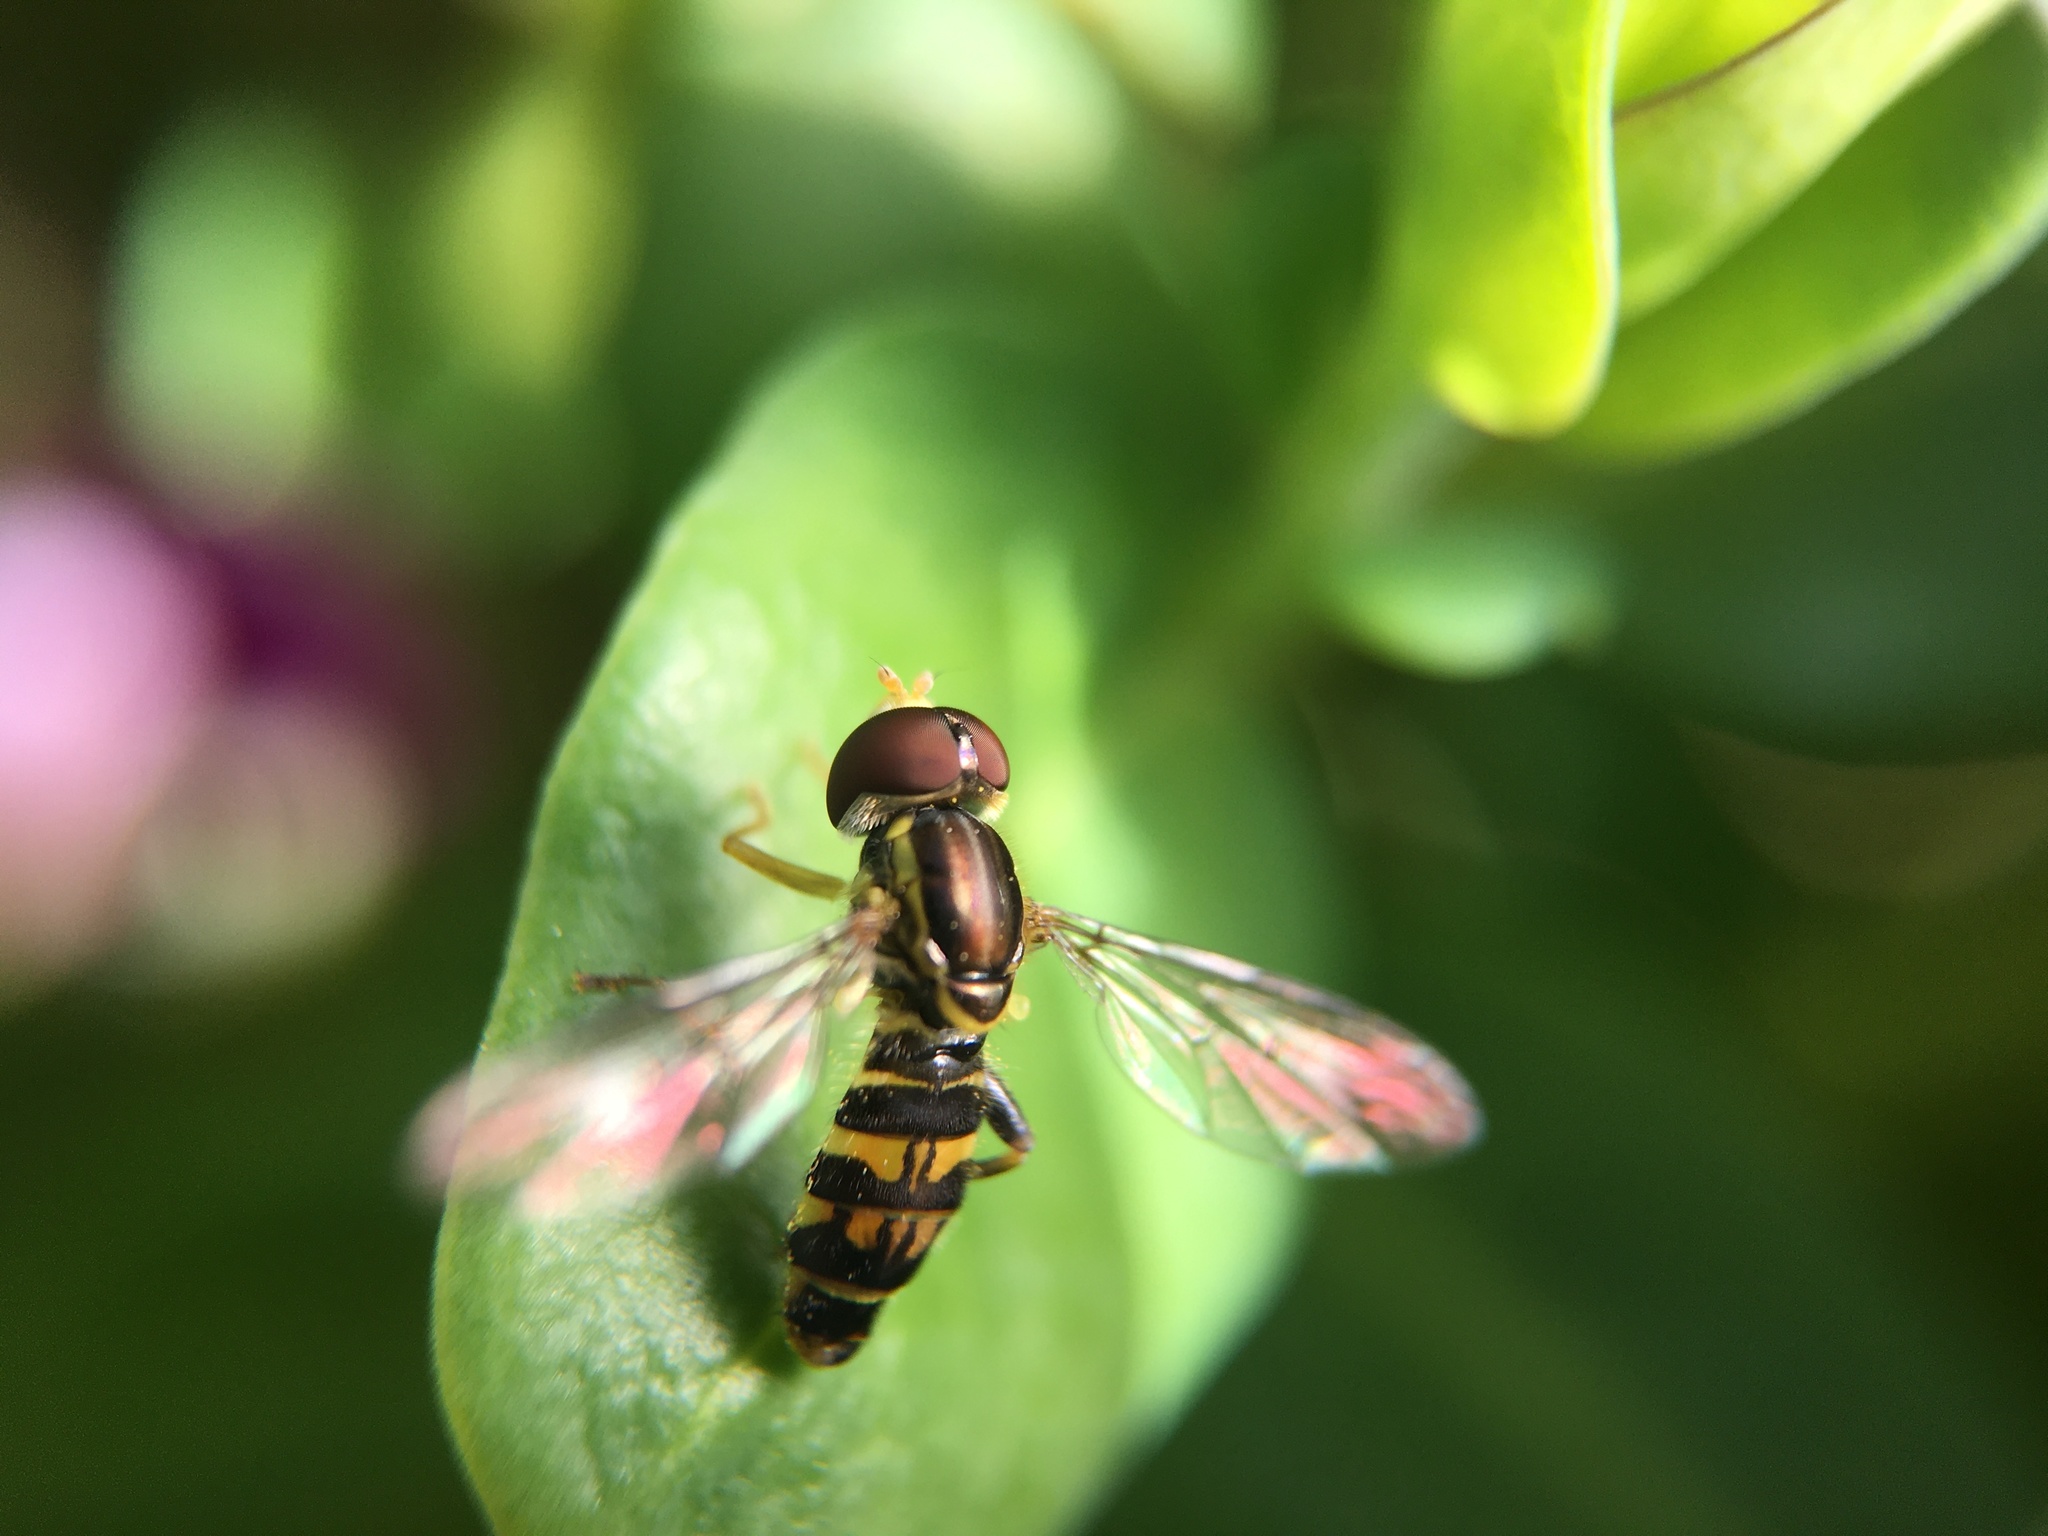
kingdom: Animalia
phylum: Arthropoda
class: Insecta
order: Diptera
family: Syrphidae
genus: Toxomerus
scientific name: Toxomerus occidentalis
